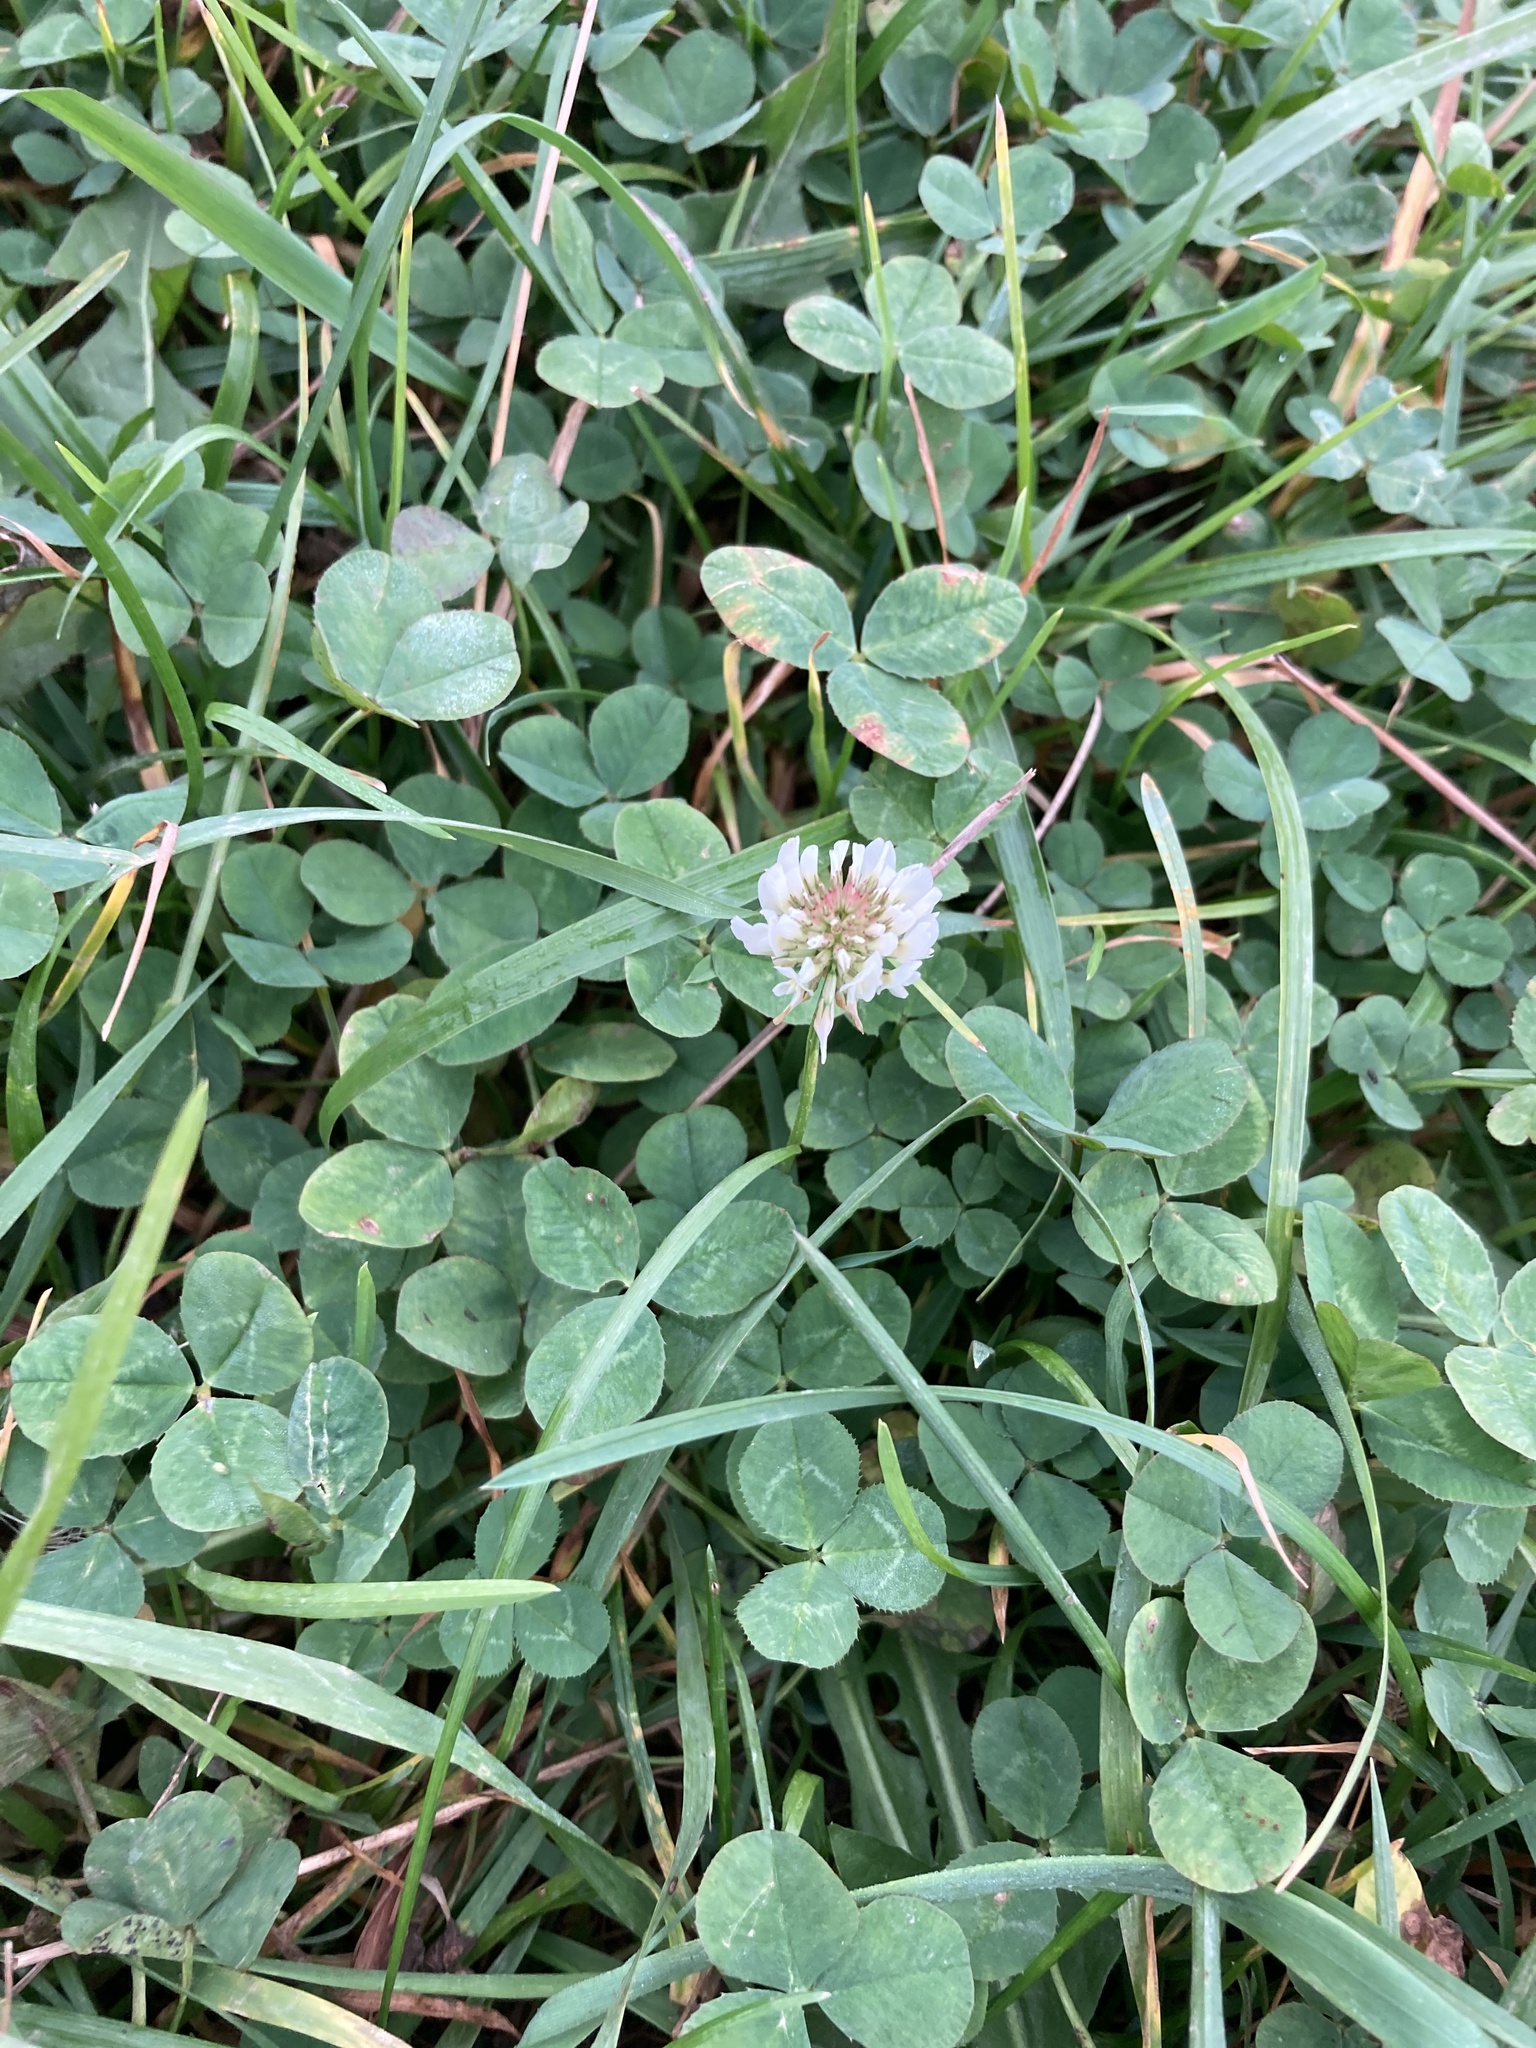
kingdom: Plantae
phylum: Tracheophyta
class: Magnoliopsida
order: Fabales
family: Fabaceae
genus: Trifolium
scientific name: Trifolium repens
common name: White clover
